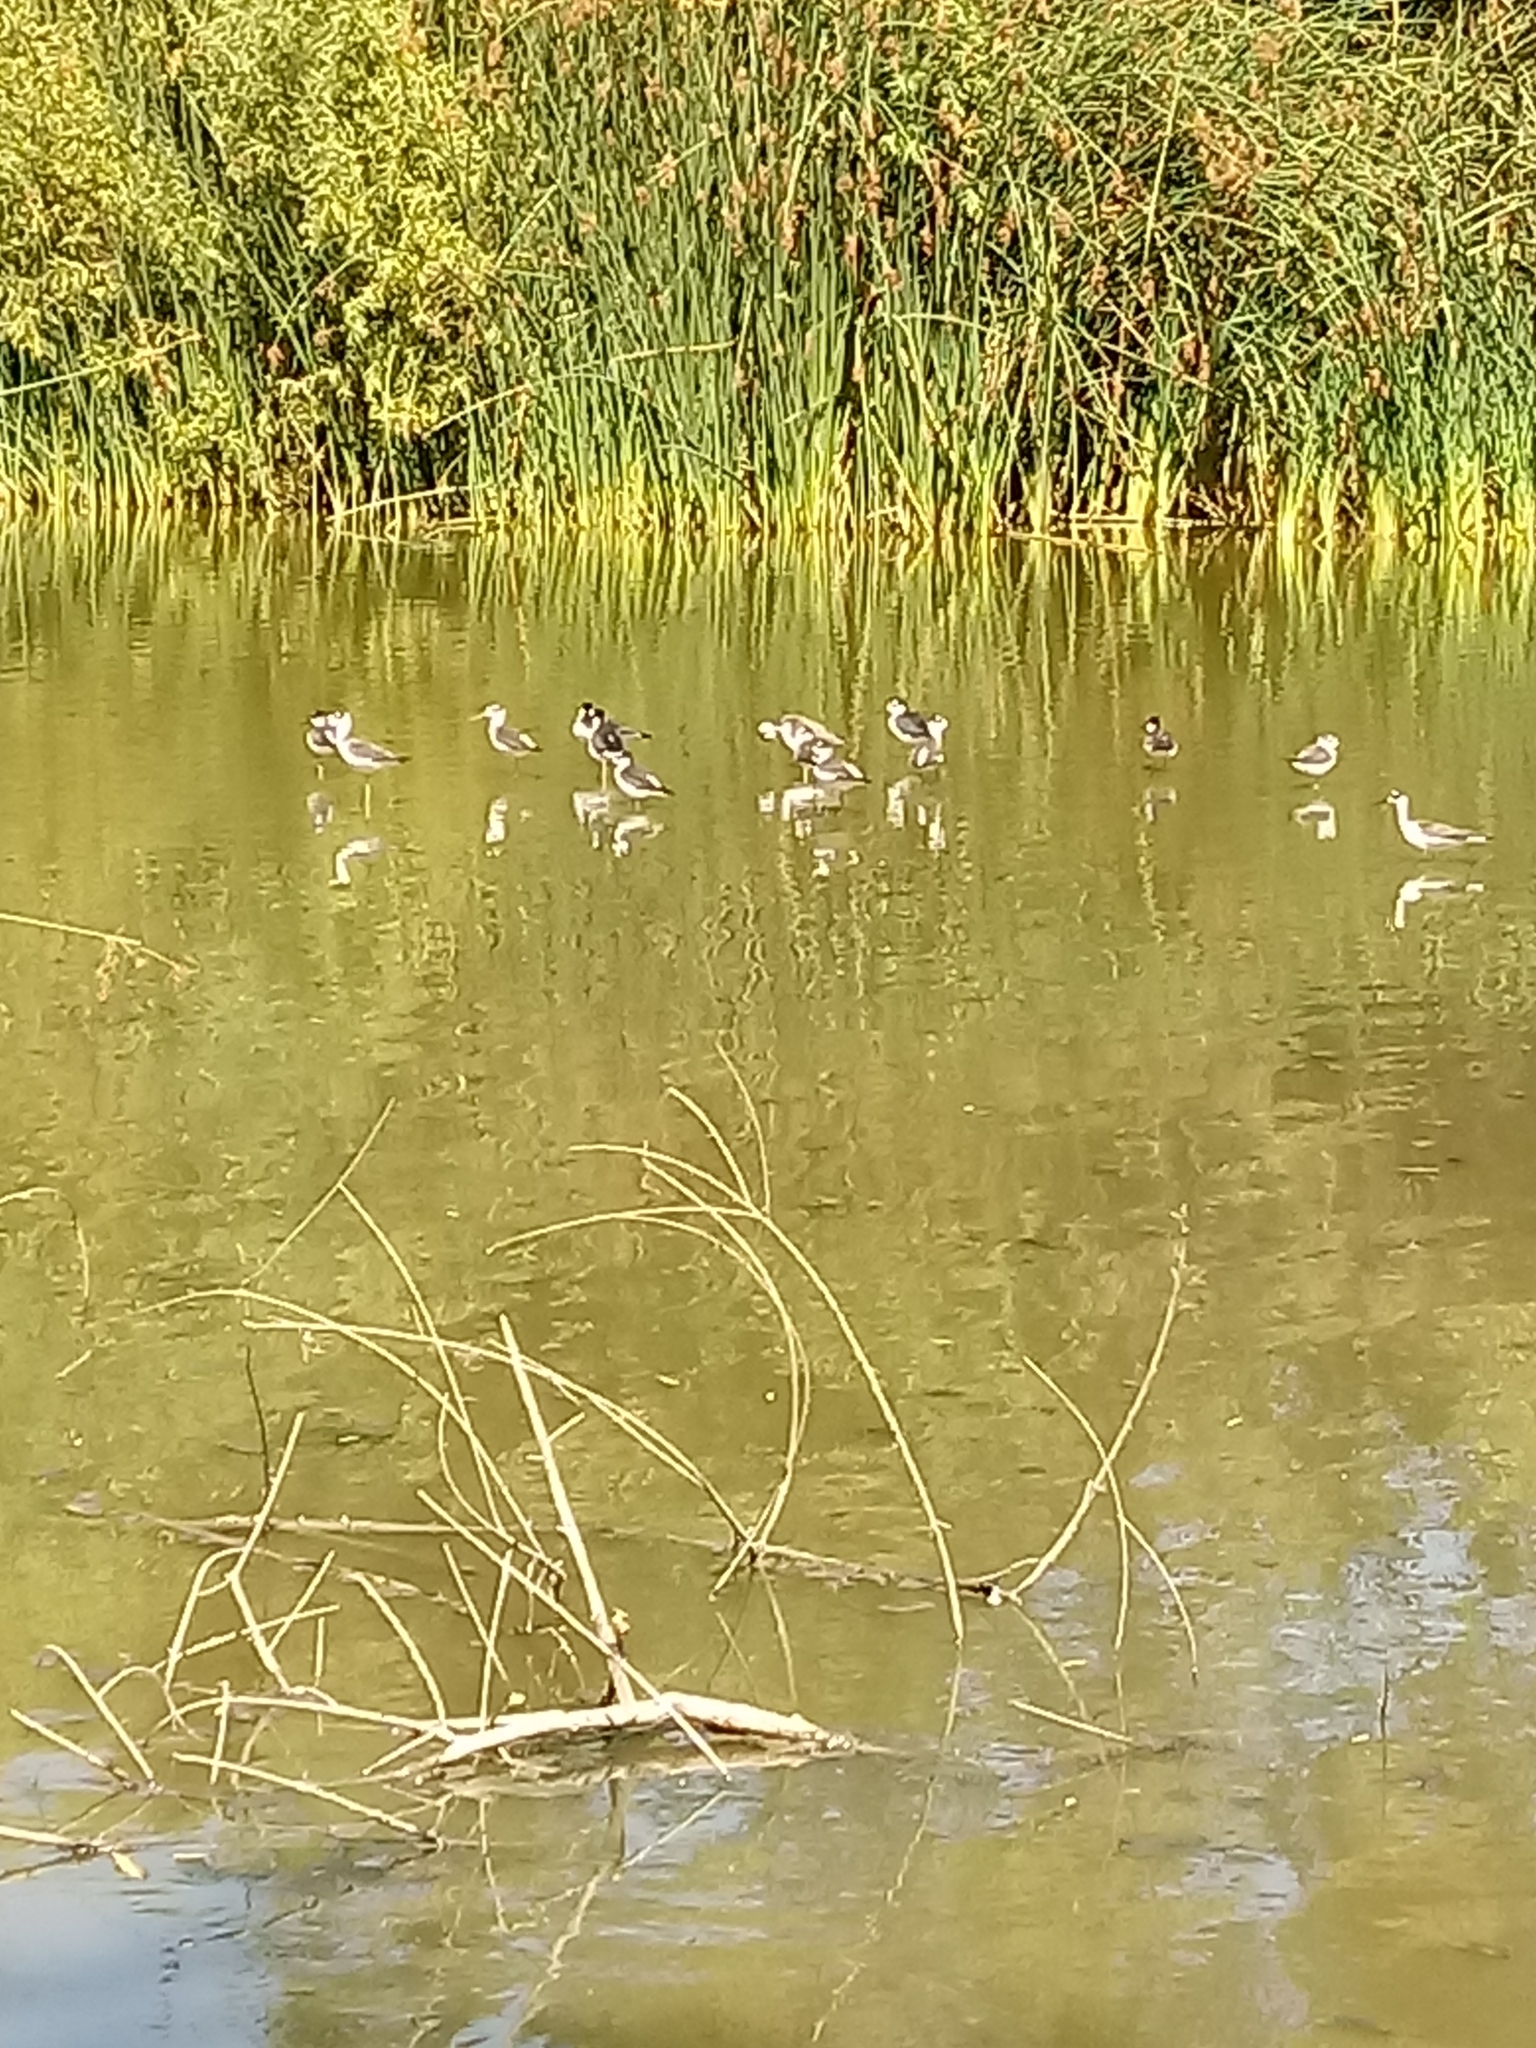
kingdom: Animalia
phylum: Chordata
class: Aves
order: Charadriiformes
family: Recurvirostridae
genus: Himantopus
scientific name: Himantopus mexicanus
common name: Black-necked stilt
